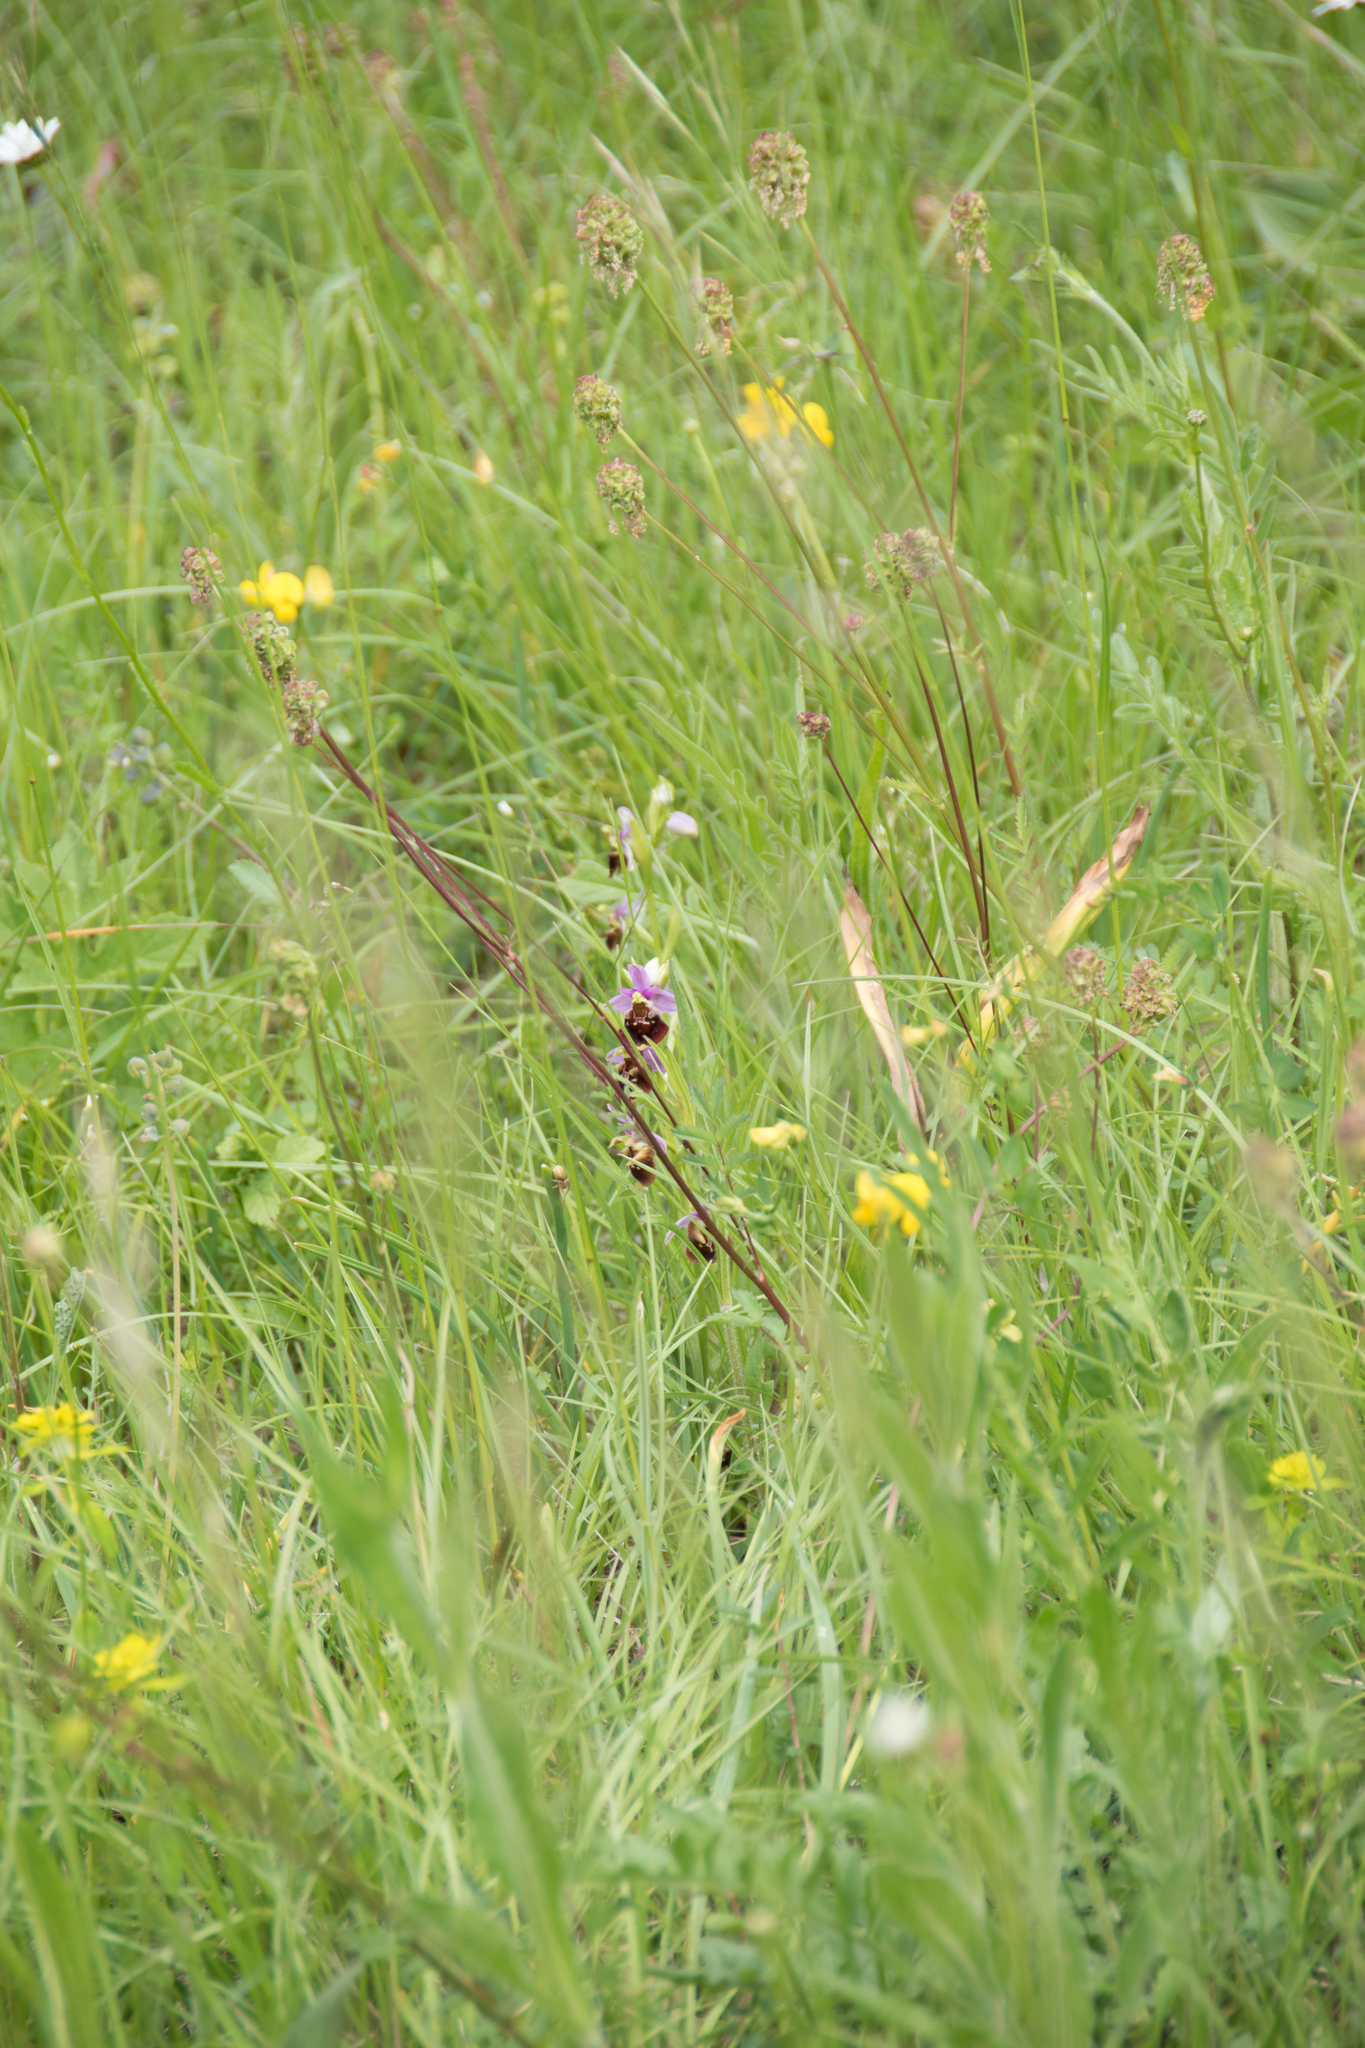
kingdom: Plantae
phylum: Tracheophyta
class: Liliopsida
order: Asparagales
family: Orchidaceae
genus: Ophrys
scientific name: Ophrys holosericea
